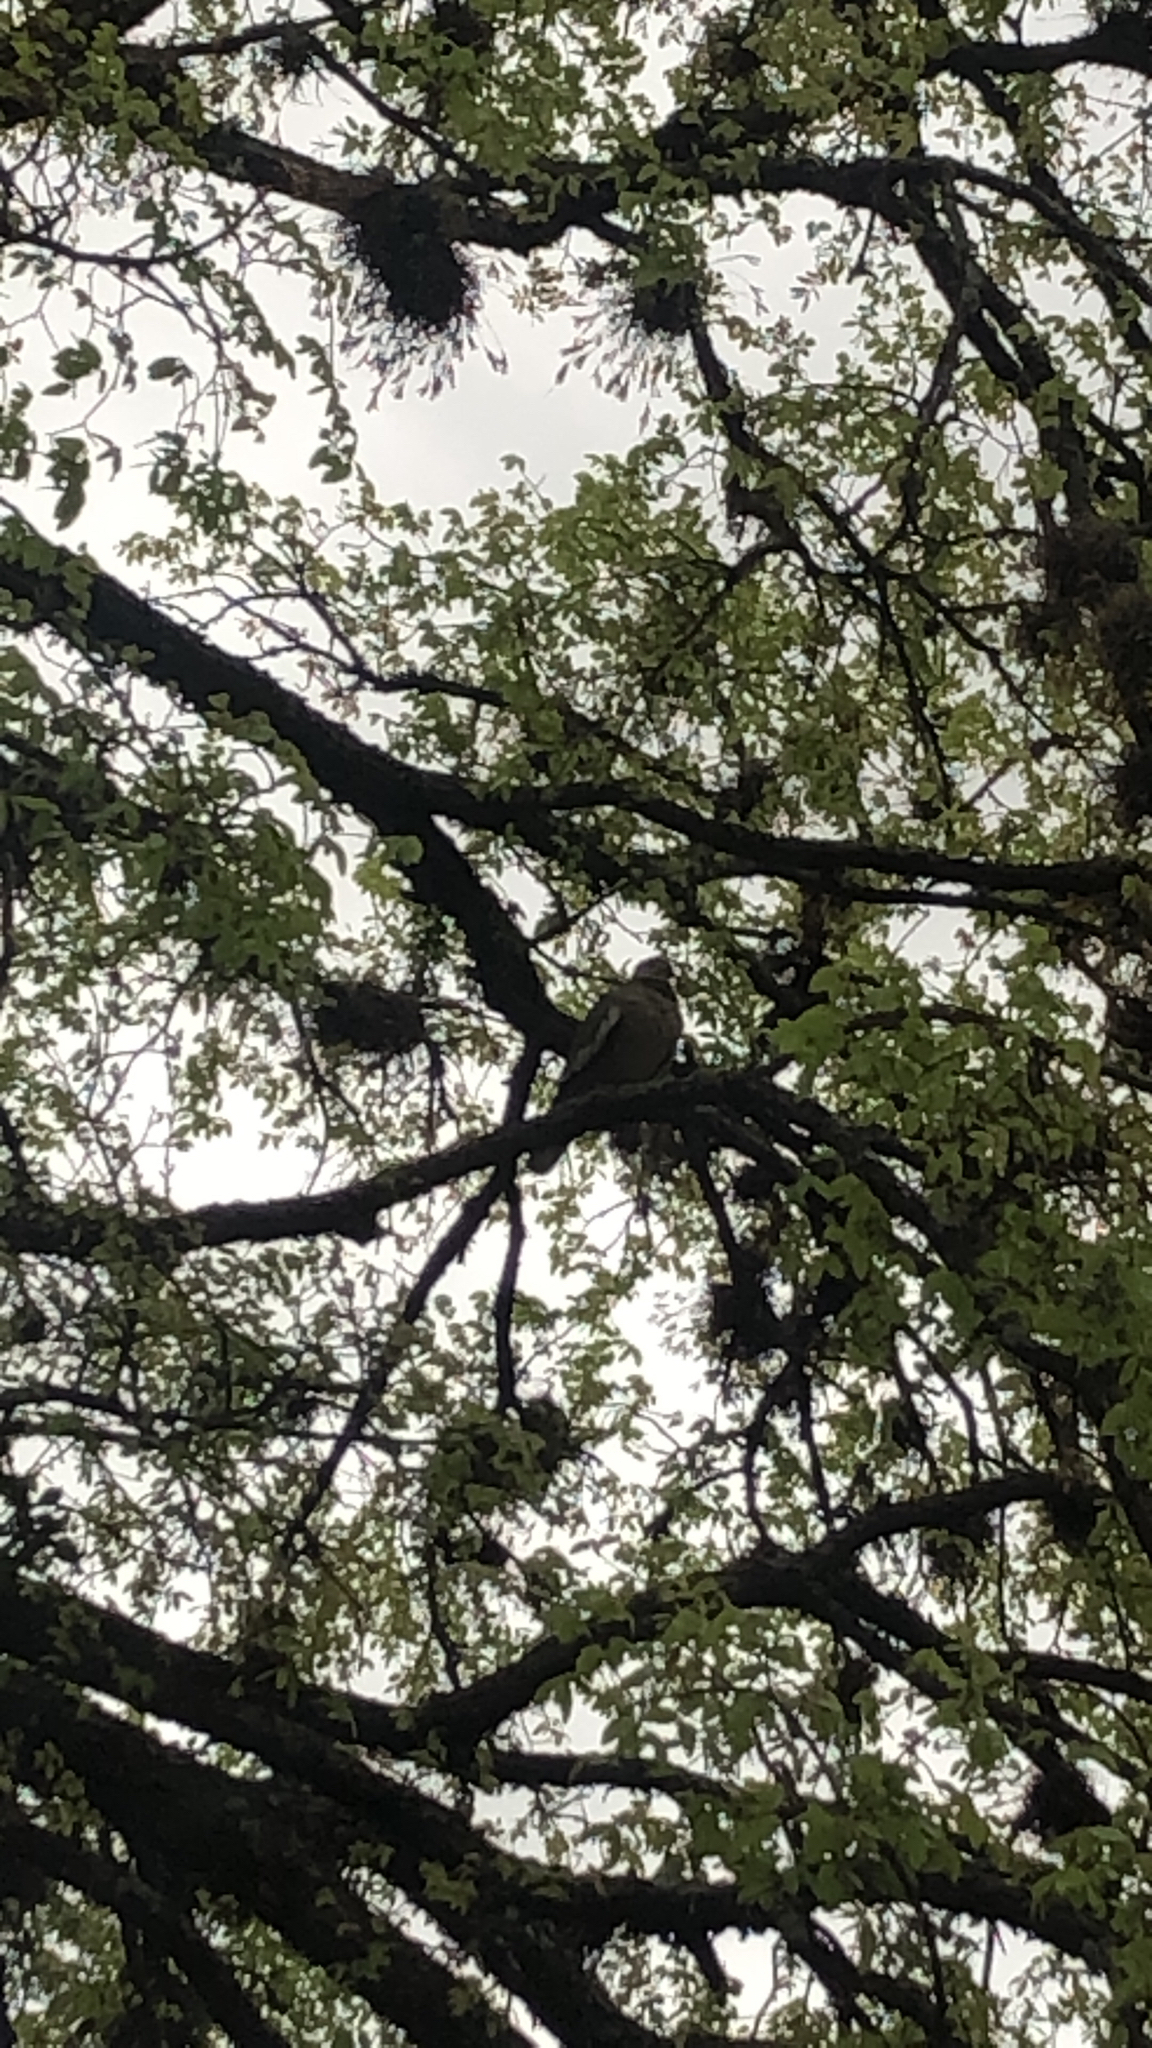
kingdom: Animalia
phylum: Chordata
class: Aves
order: Columbiformes
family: Columbidae
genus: Zenaida
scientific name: Zenaida asiatica
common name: White-winged dove
